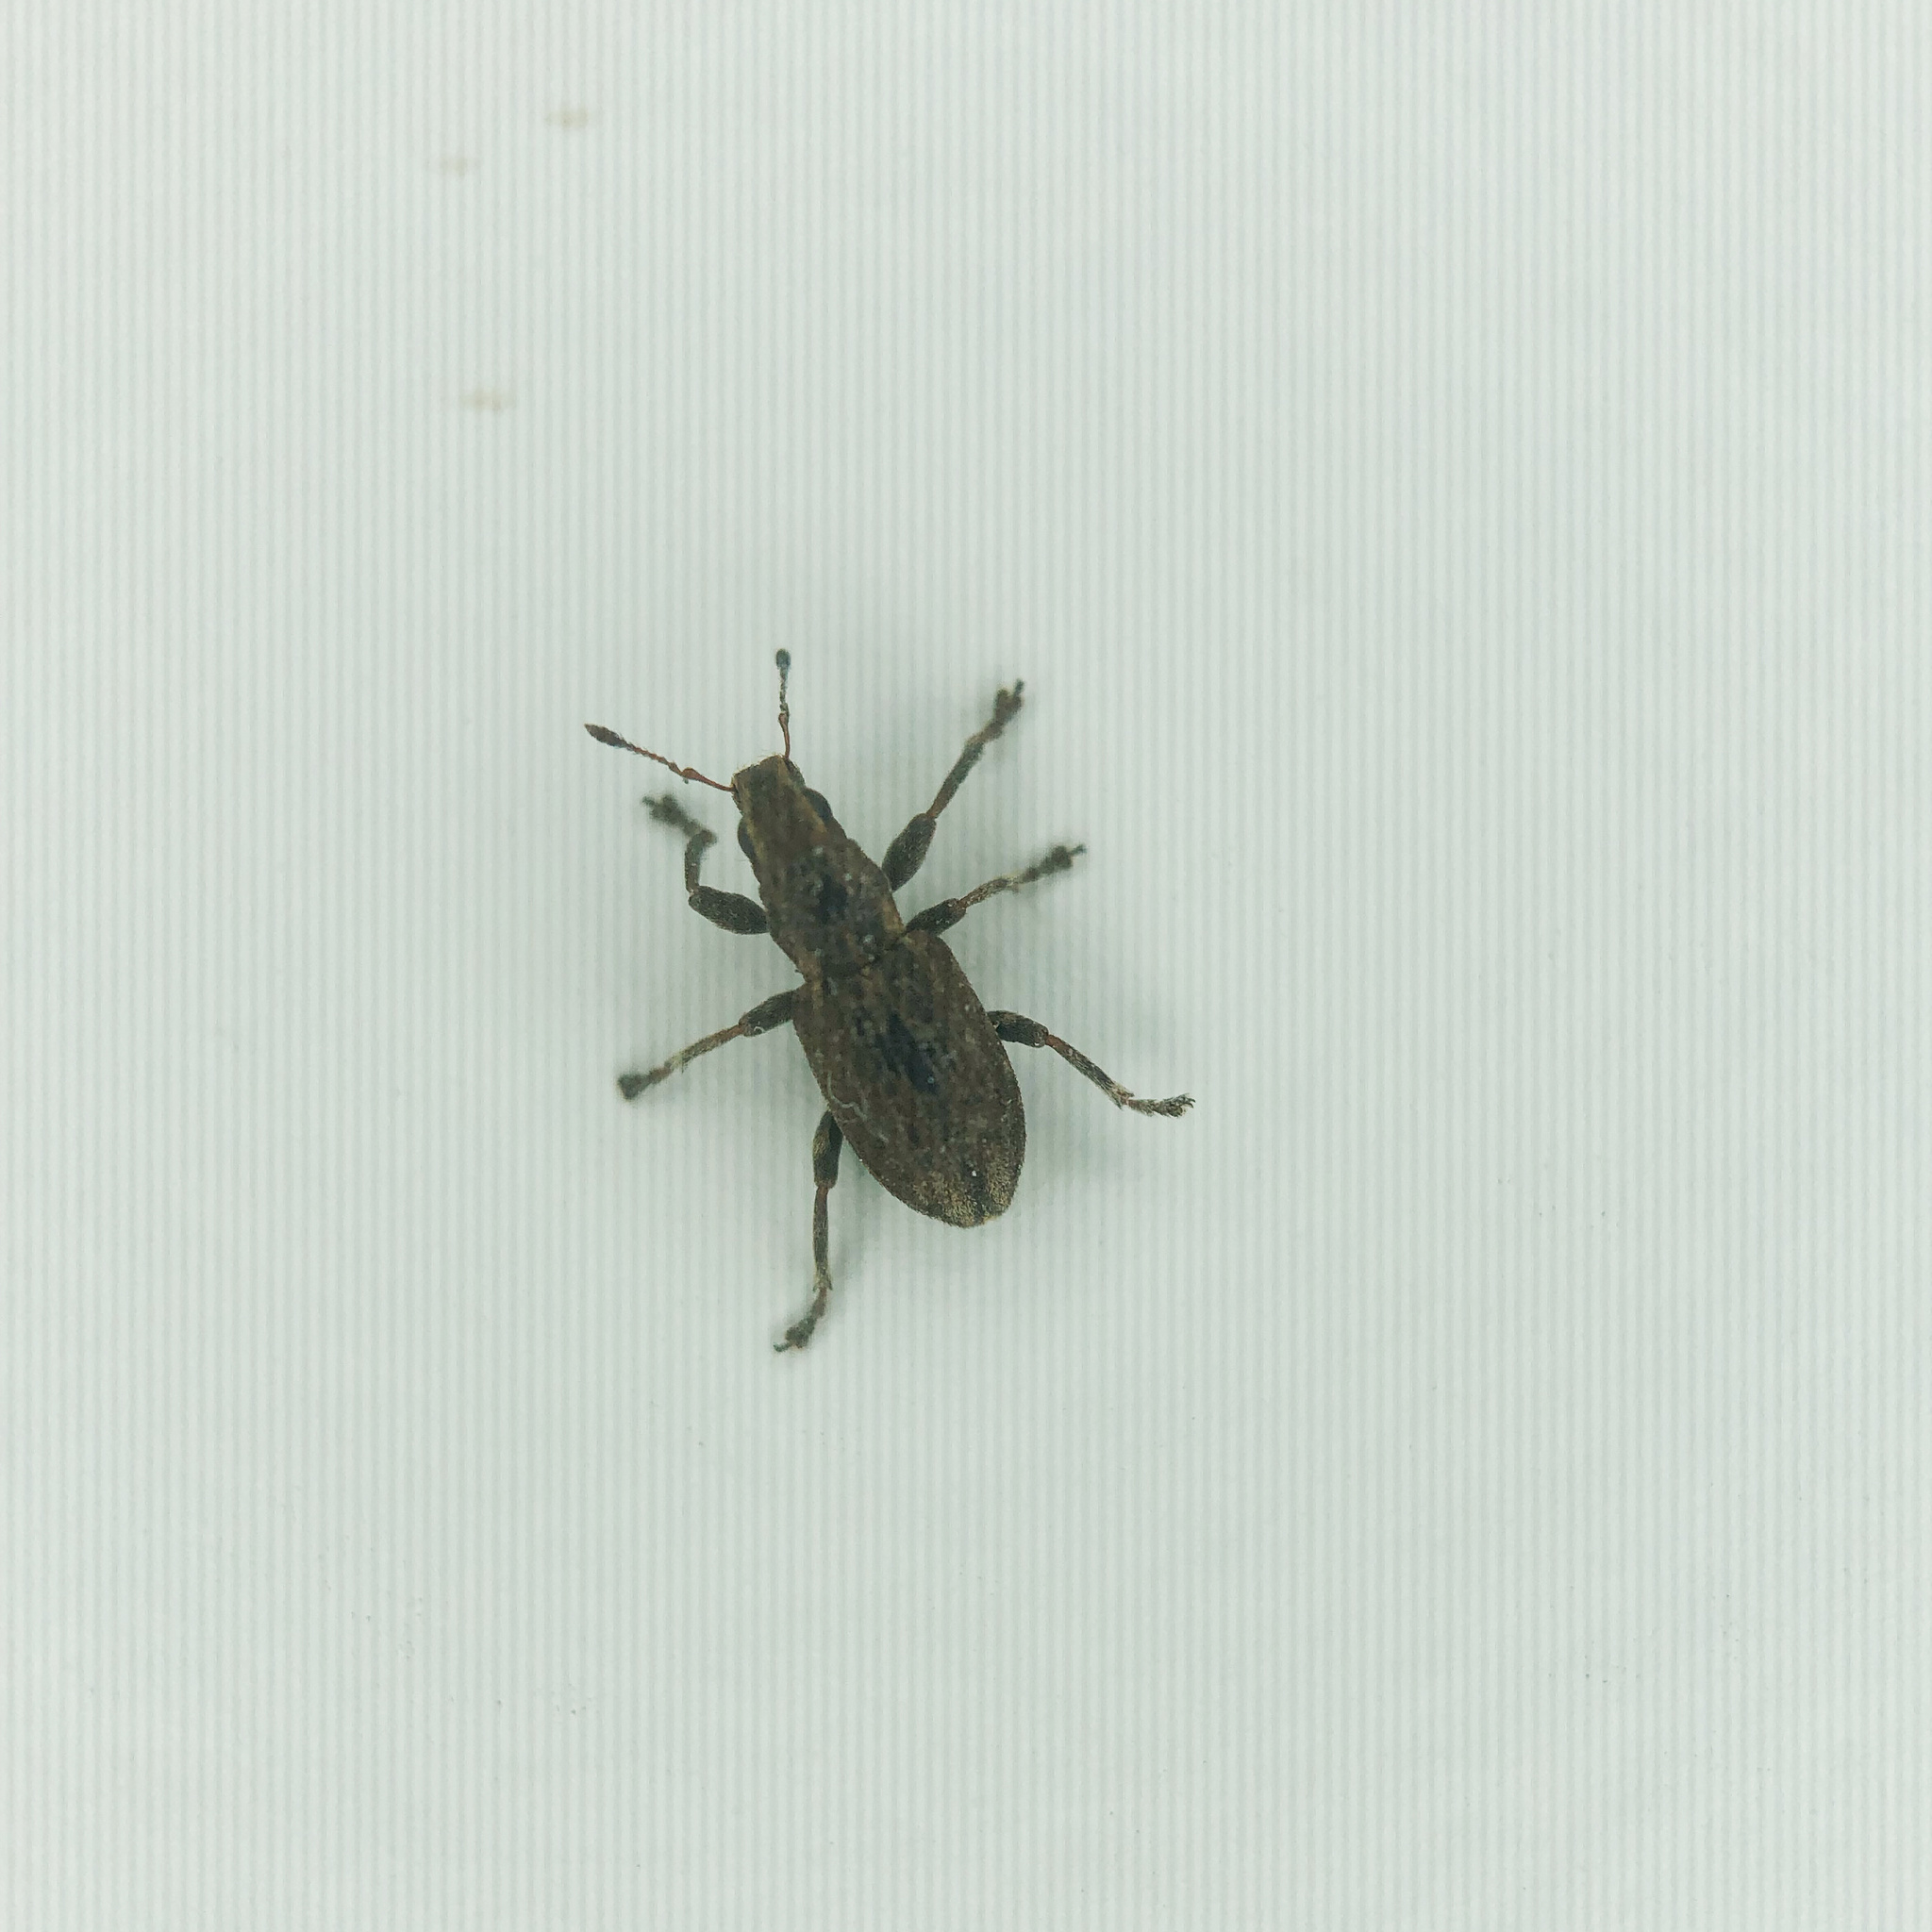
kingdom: Animalia
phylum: Arthropoda
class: Insecta
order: Coleoptera
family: Curculionidae
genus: Sitona
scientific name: Sitona obsoletus
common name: Weevil
